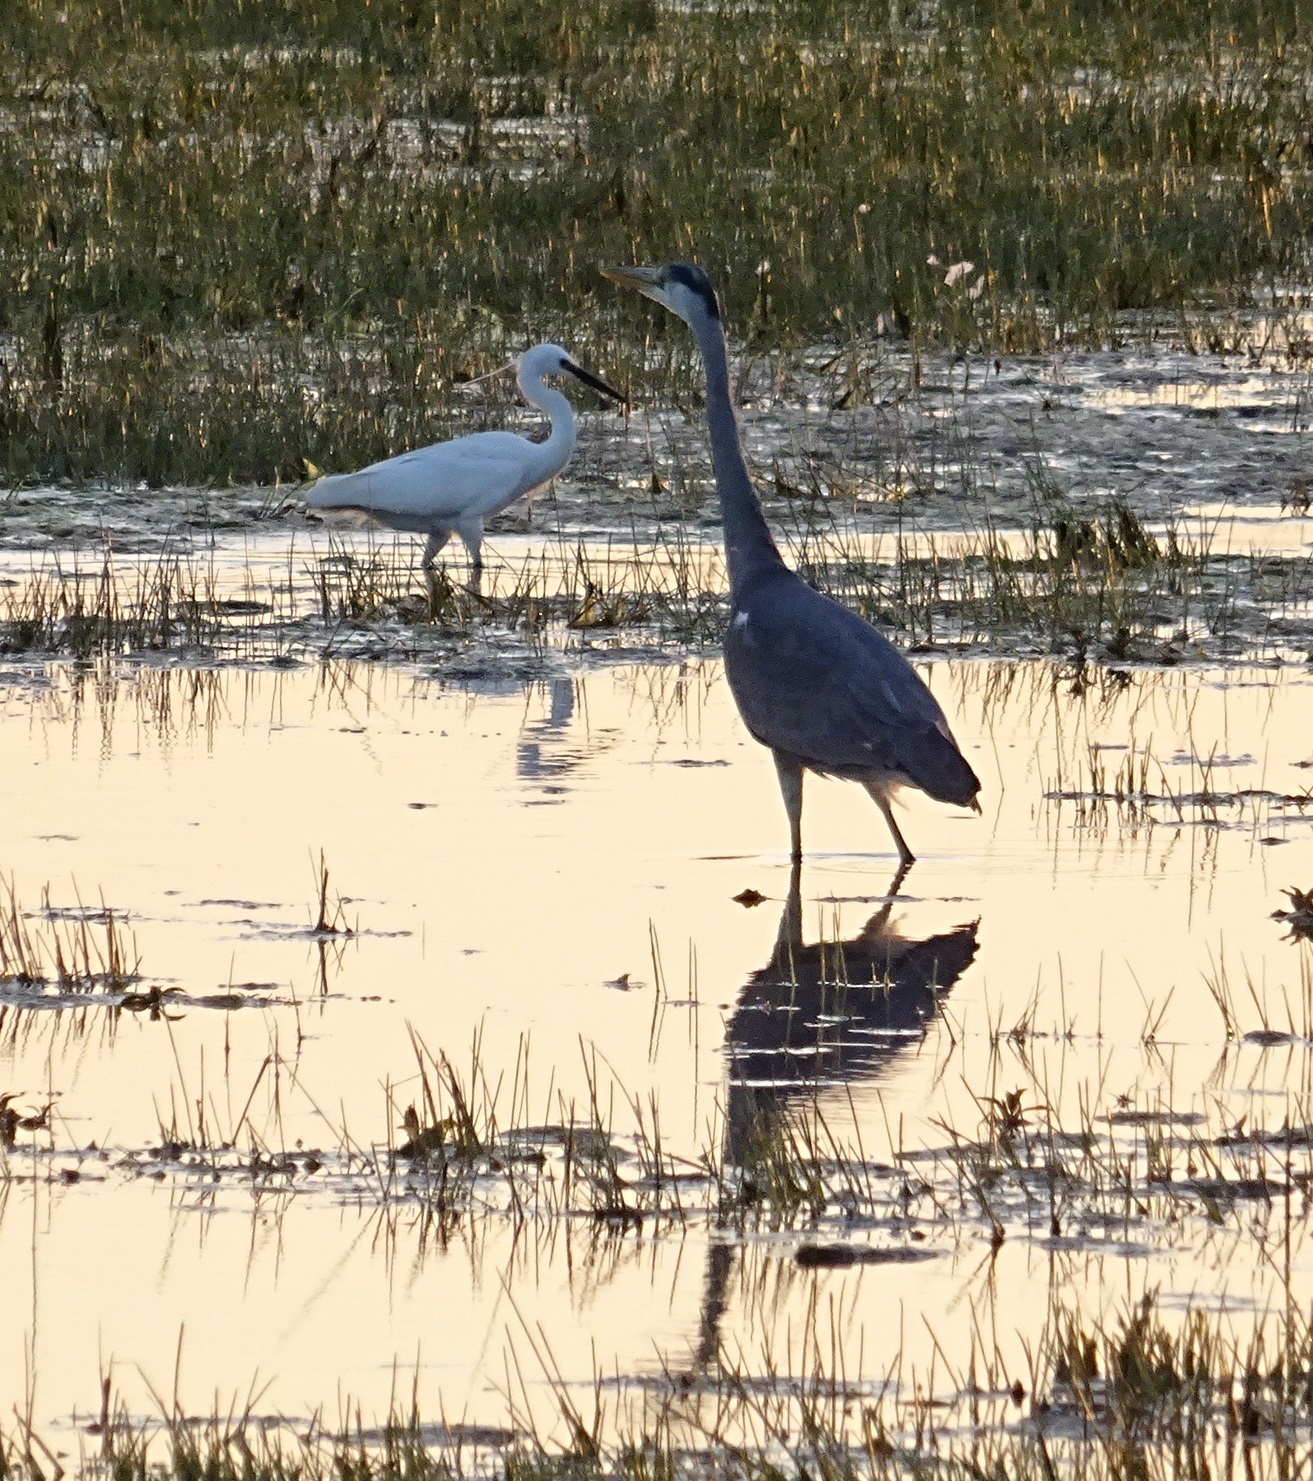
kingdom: Animalia
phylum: Chordata
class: Aves
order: Pelecaniformes
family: Ardeidae
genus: Egretta
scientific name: Egretta garzetta
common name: Little egret
